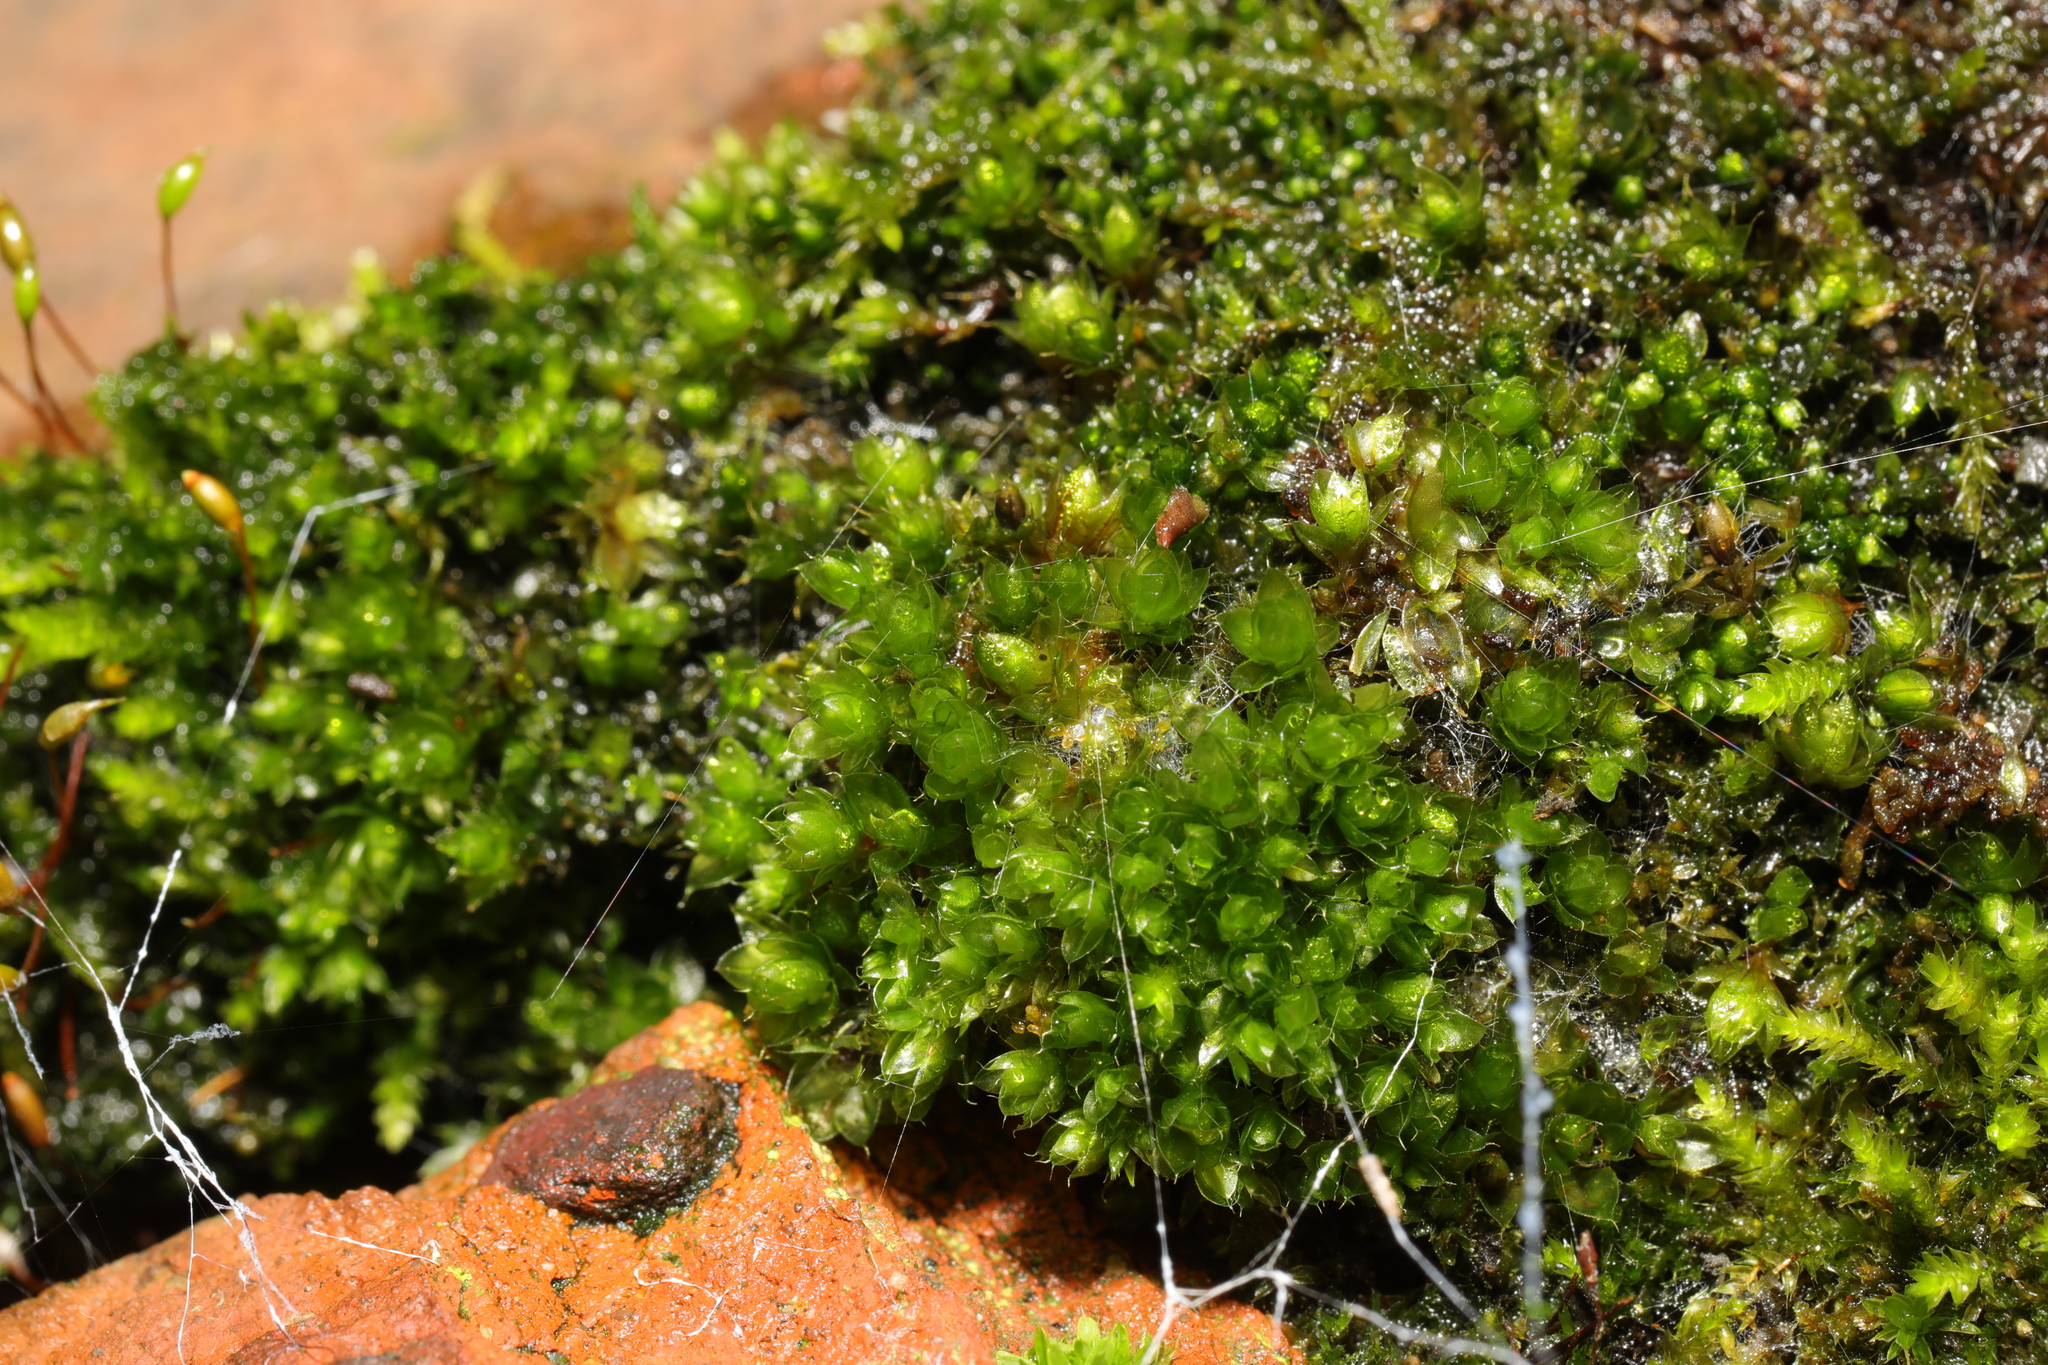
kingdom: Plantae
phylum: Bryophyta
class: Bryopsida
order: Bryales
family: Bryaceae
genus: Rosulabryum
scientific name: Rosulabryum capillare
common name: Capillary thread-moss
